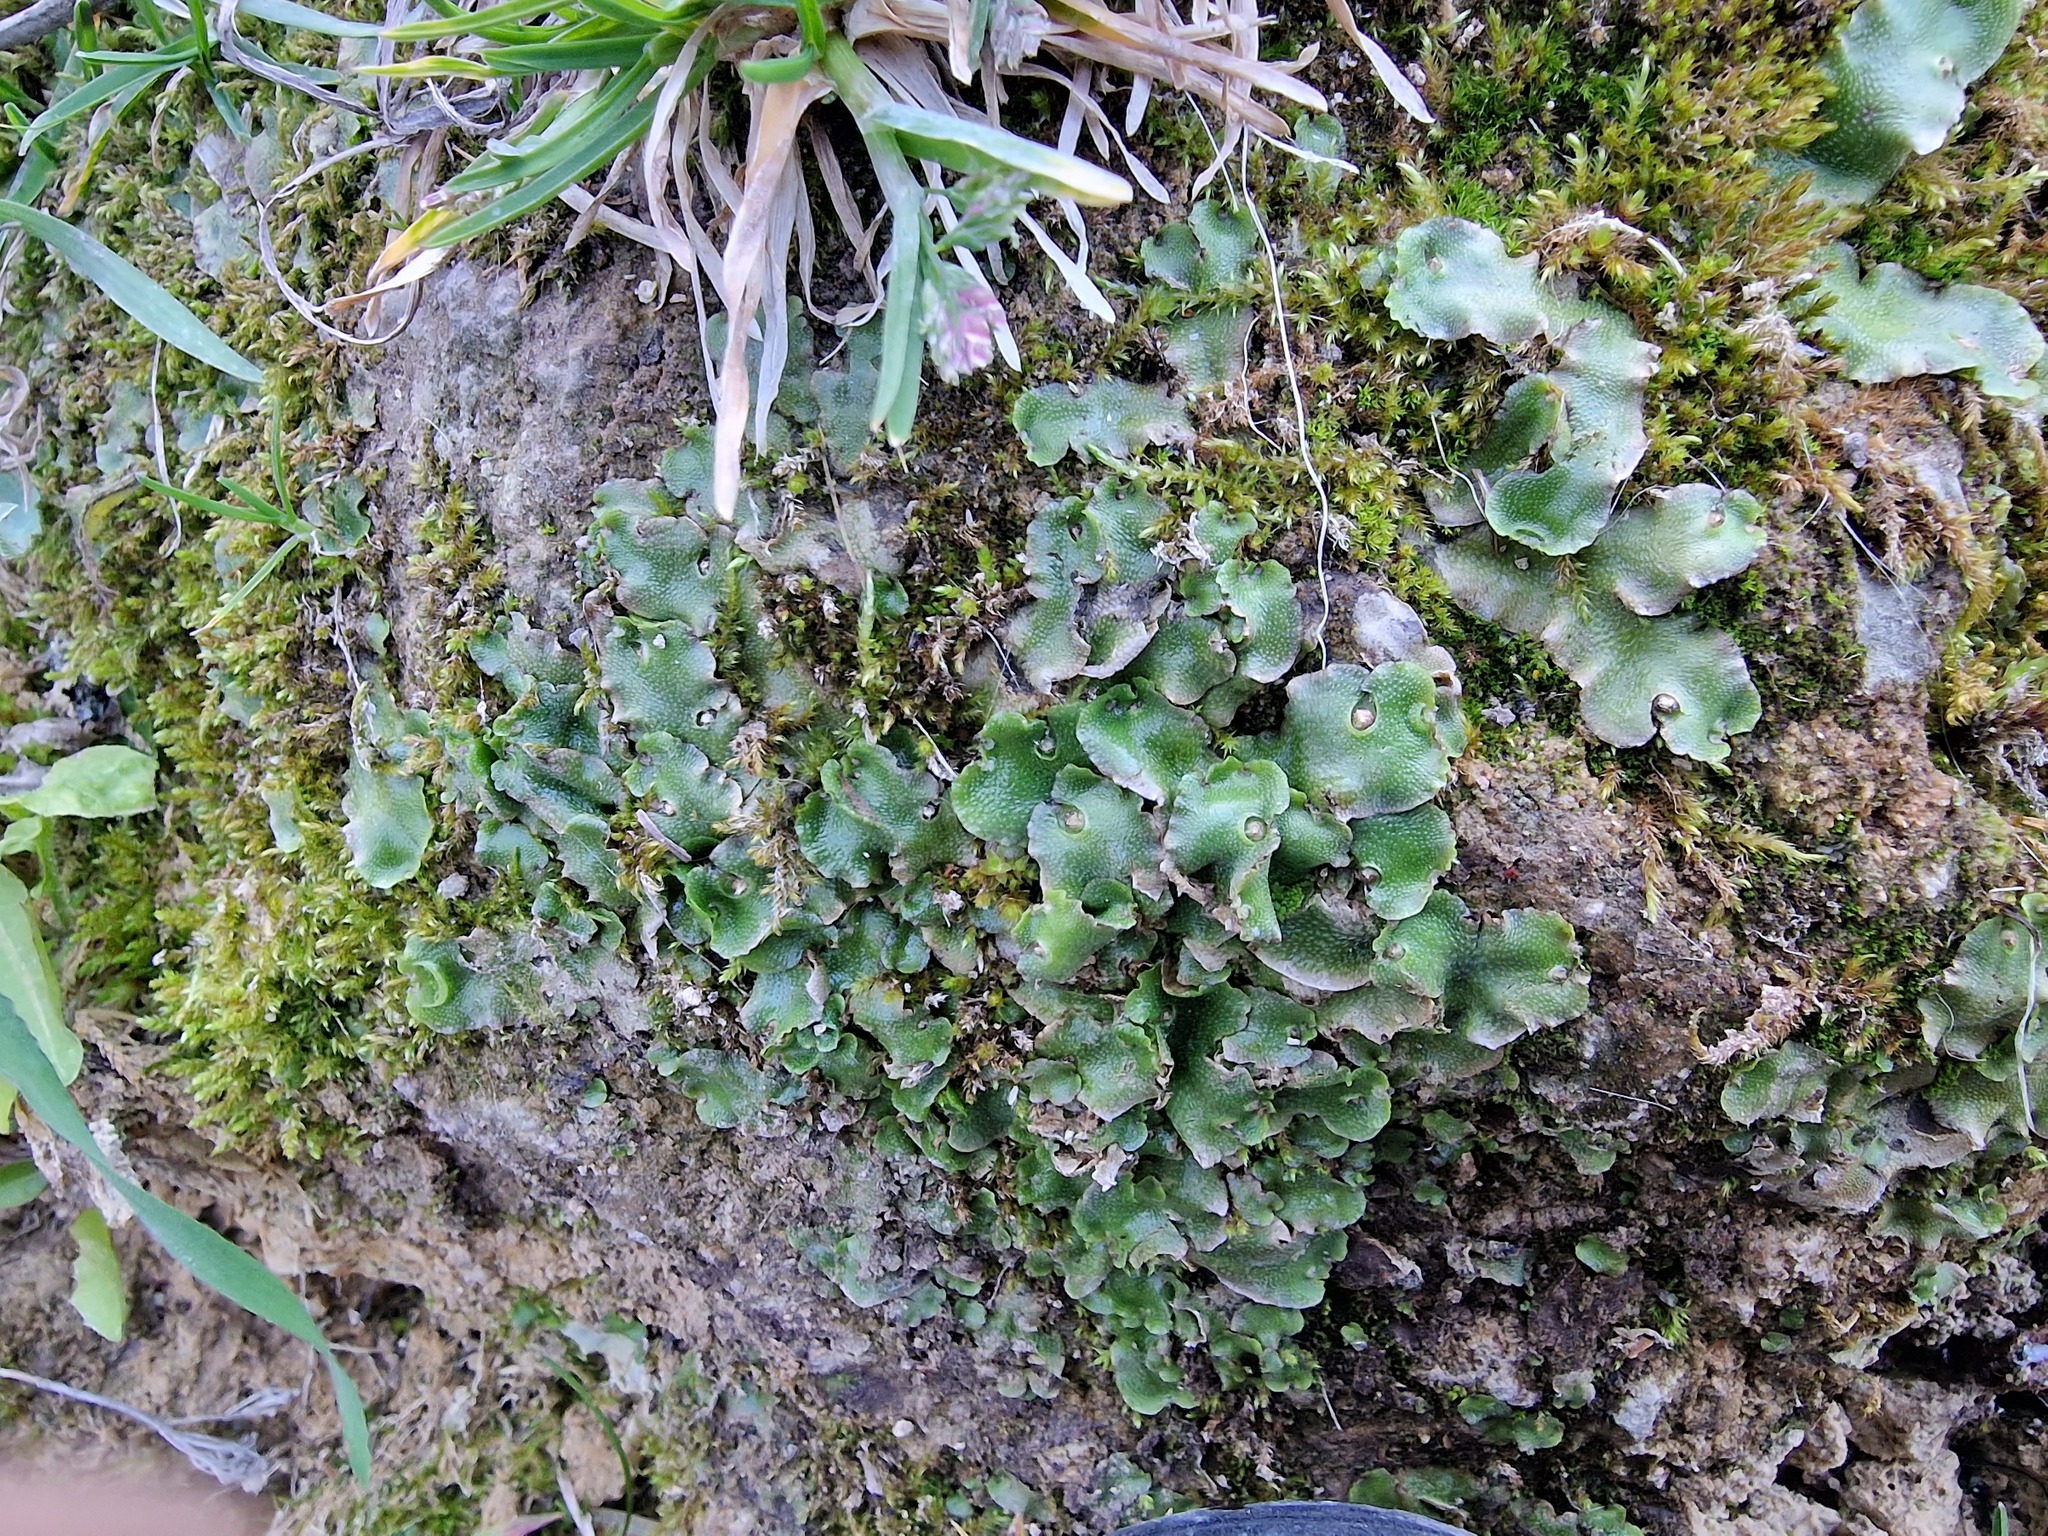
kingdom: Plantae
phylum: Marchantiophyta
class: Marchantiopsida
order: Lunulariales
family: Lunulariaceae
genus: Lunularia
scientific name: Lunularia cruciata
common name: Crescent-cup liverwort
